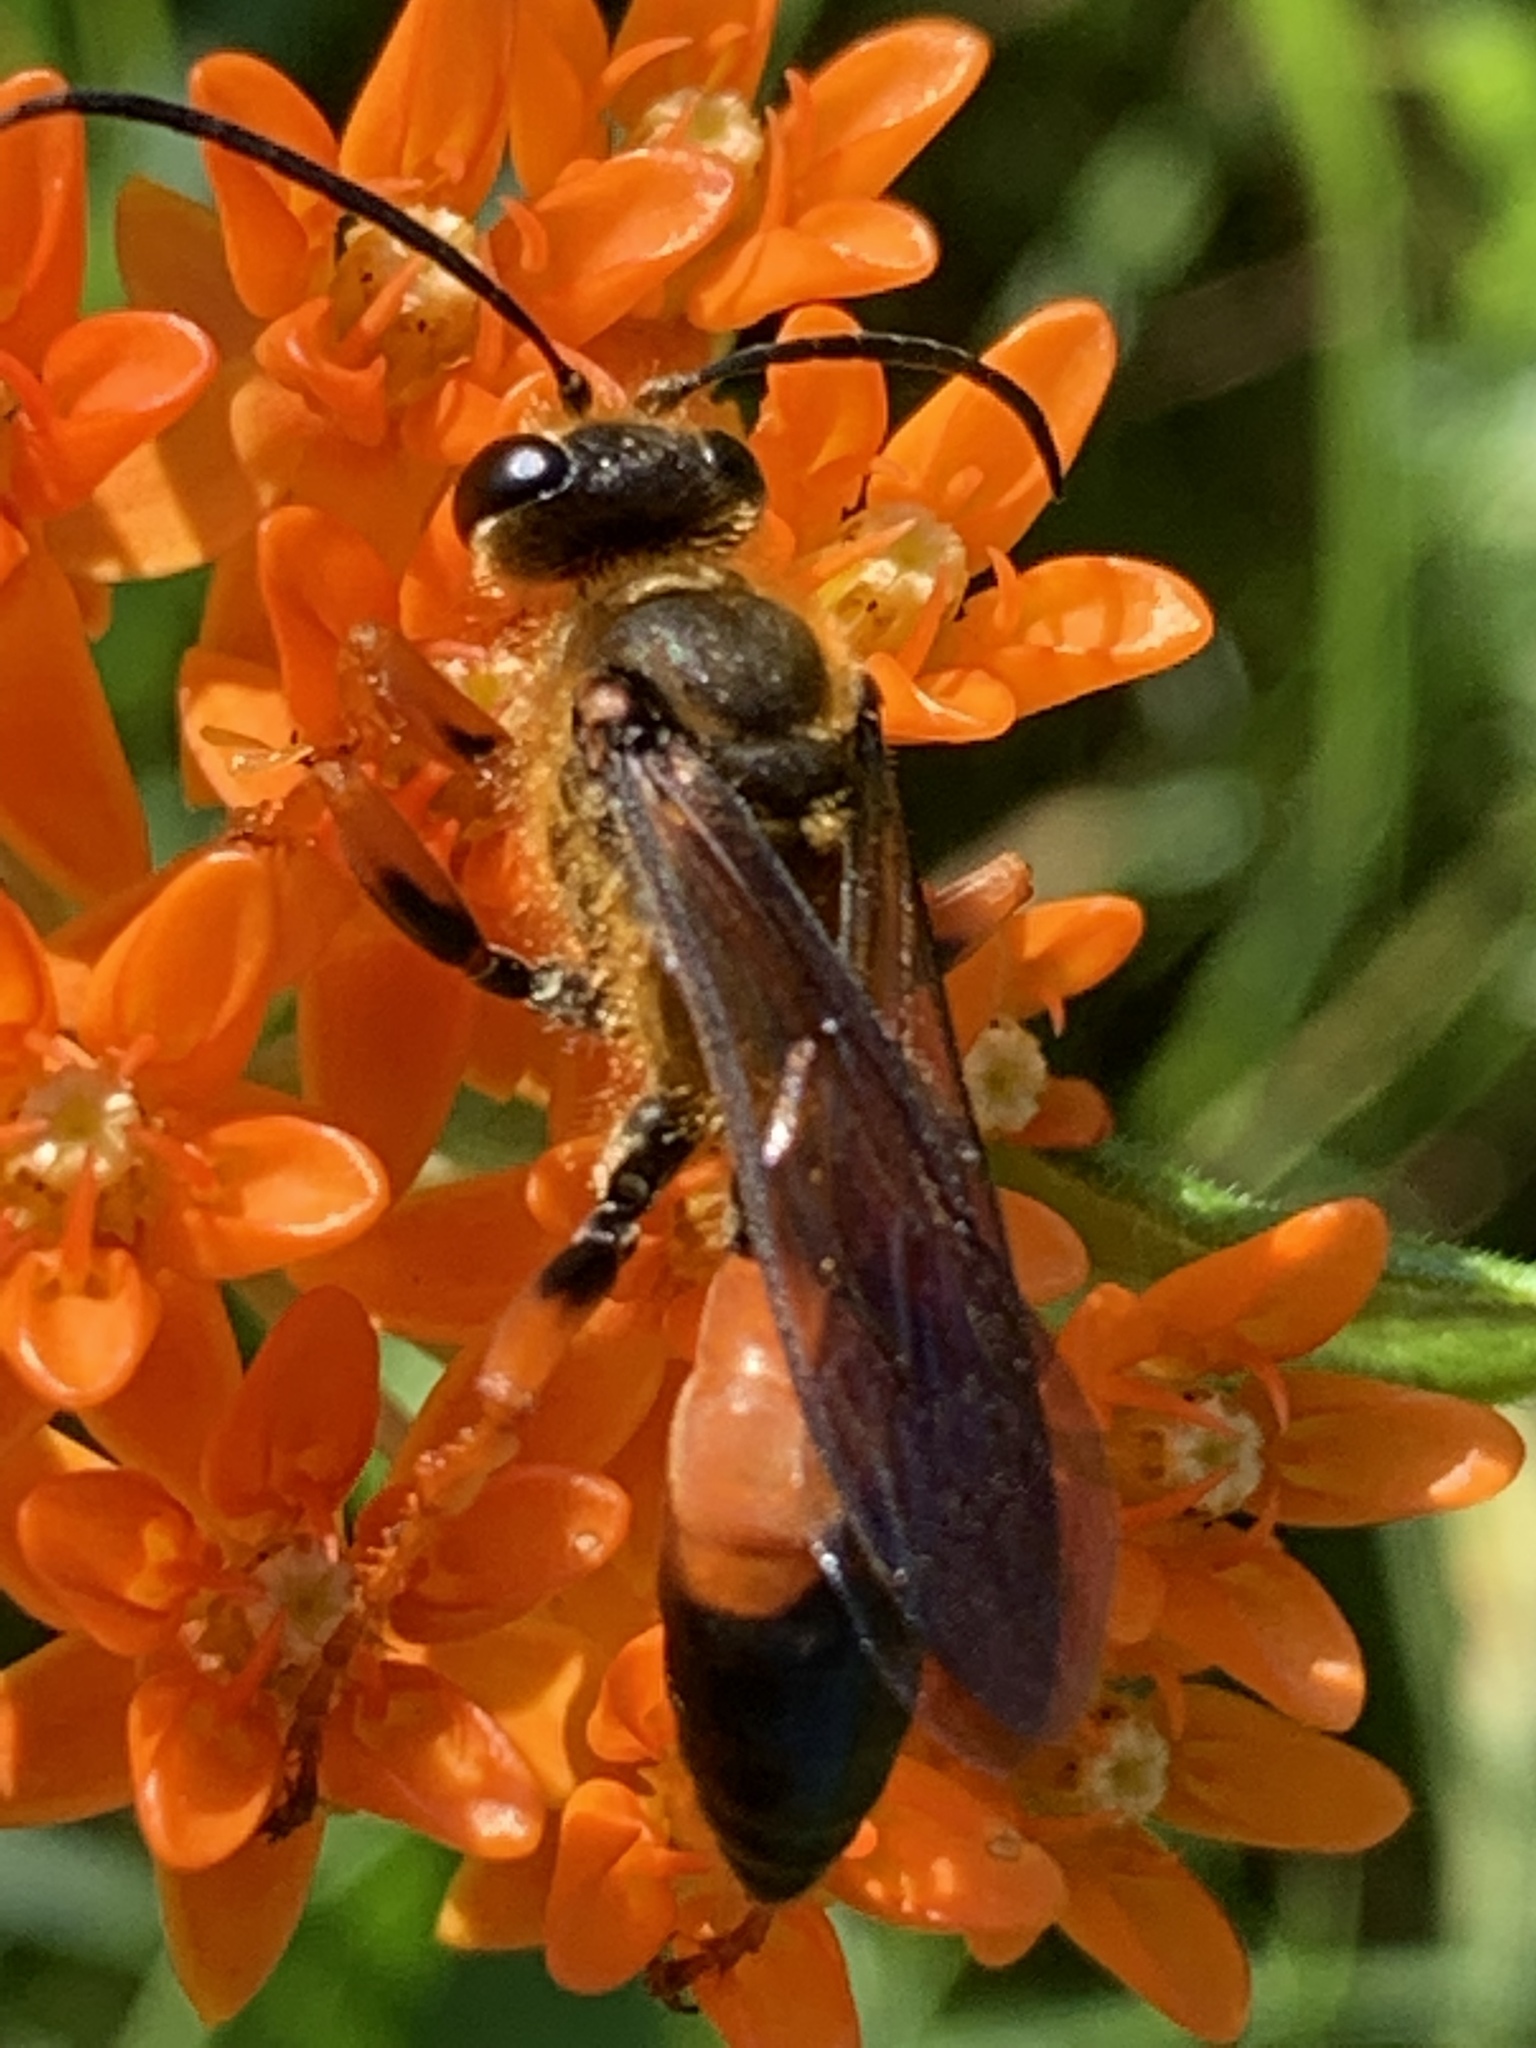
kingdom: Animalia
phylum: Arthropoda
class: Insecta
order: Hymenoptera
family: Sphecidae
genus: Sphex
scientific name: Sphex ichneumoneus
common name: Great golden digger wasp
